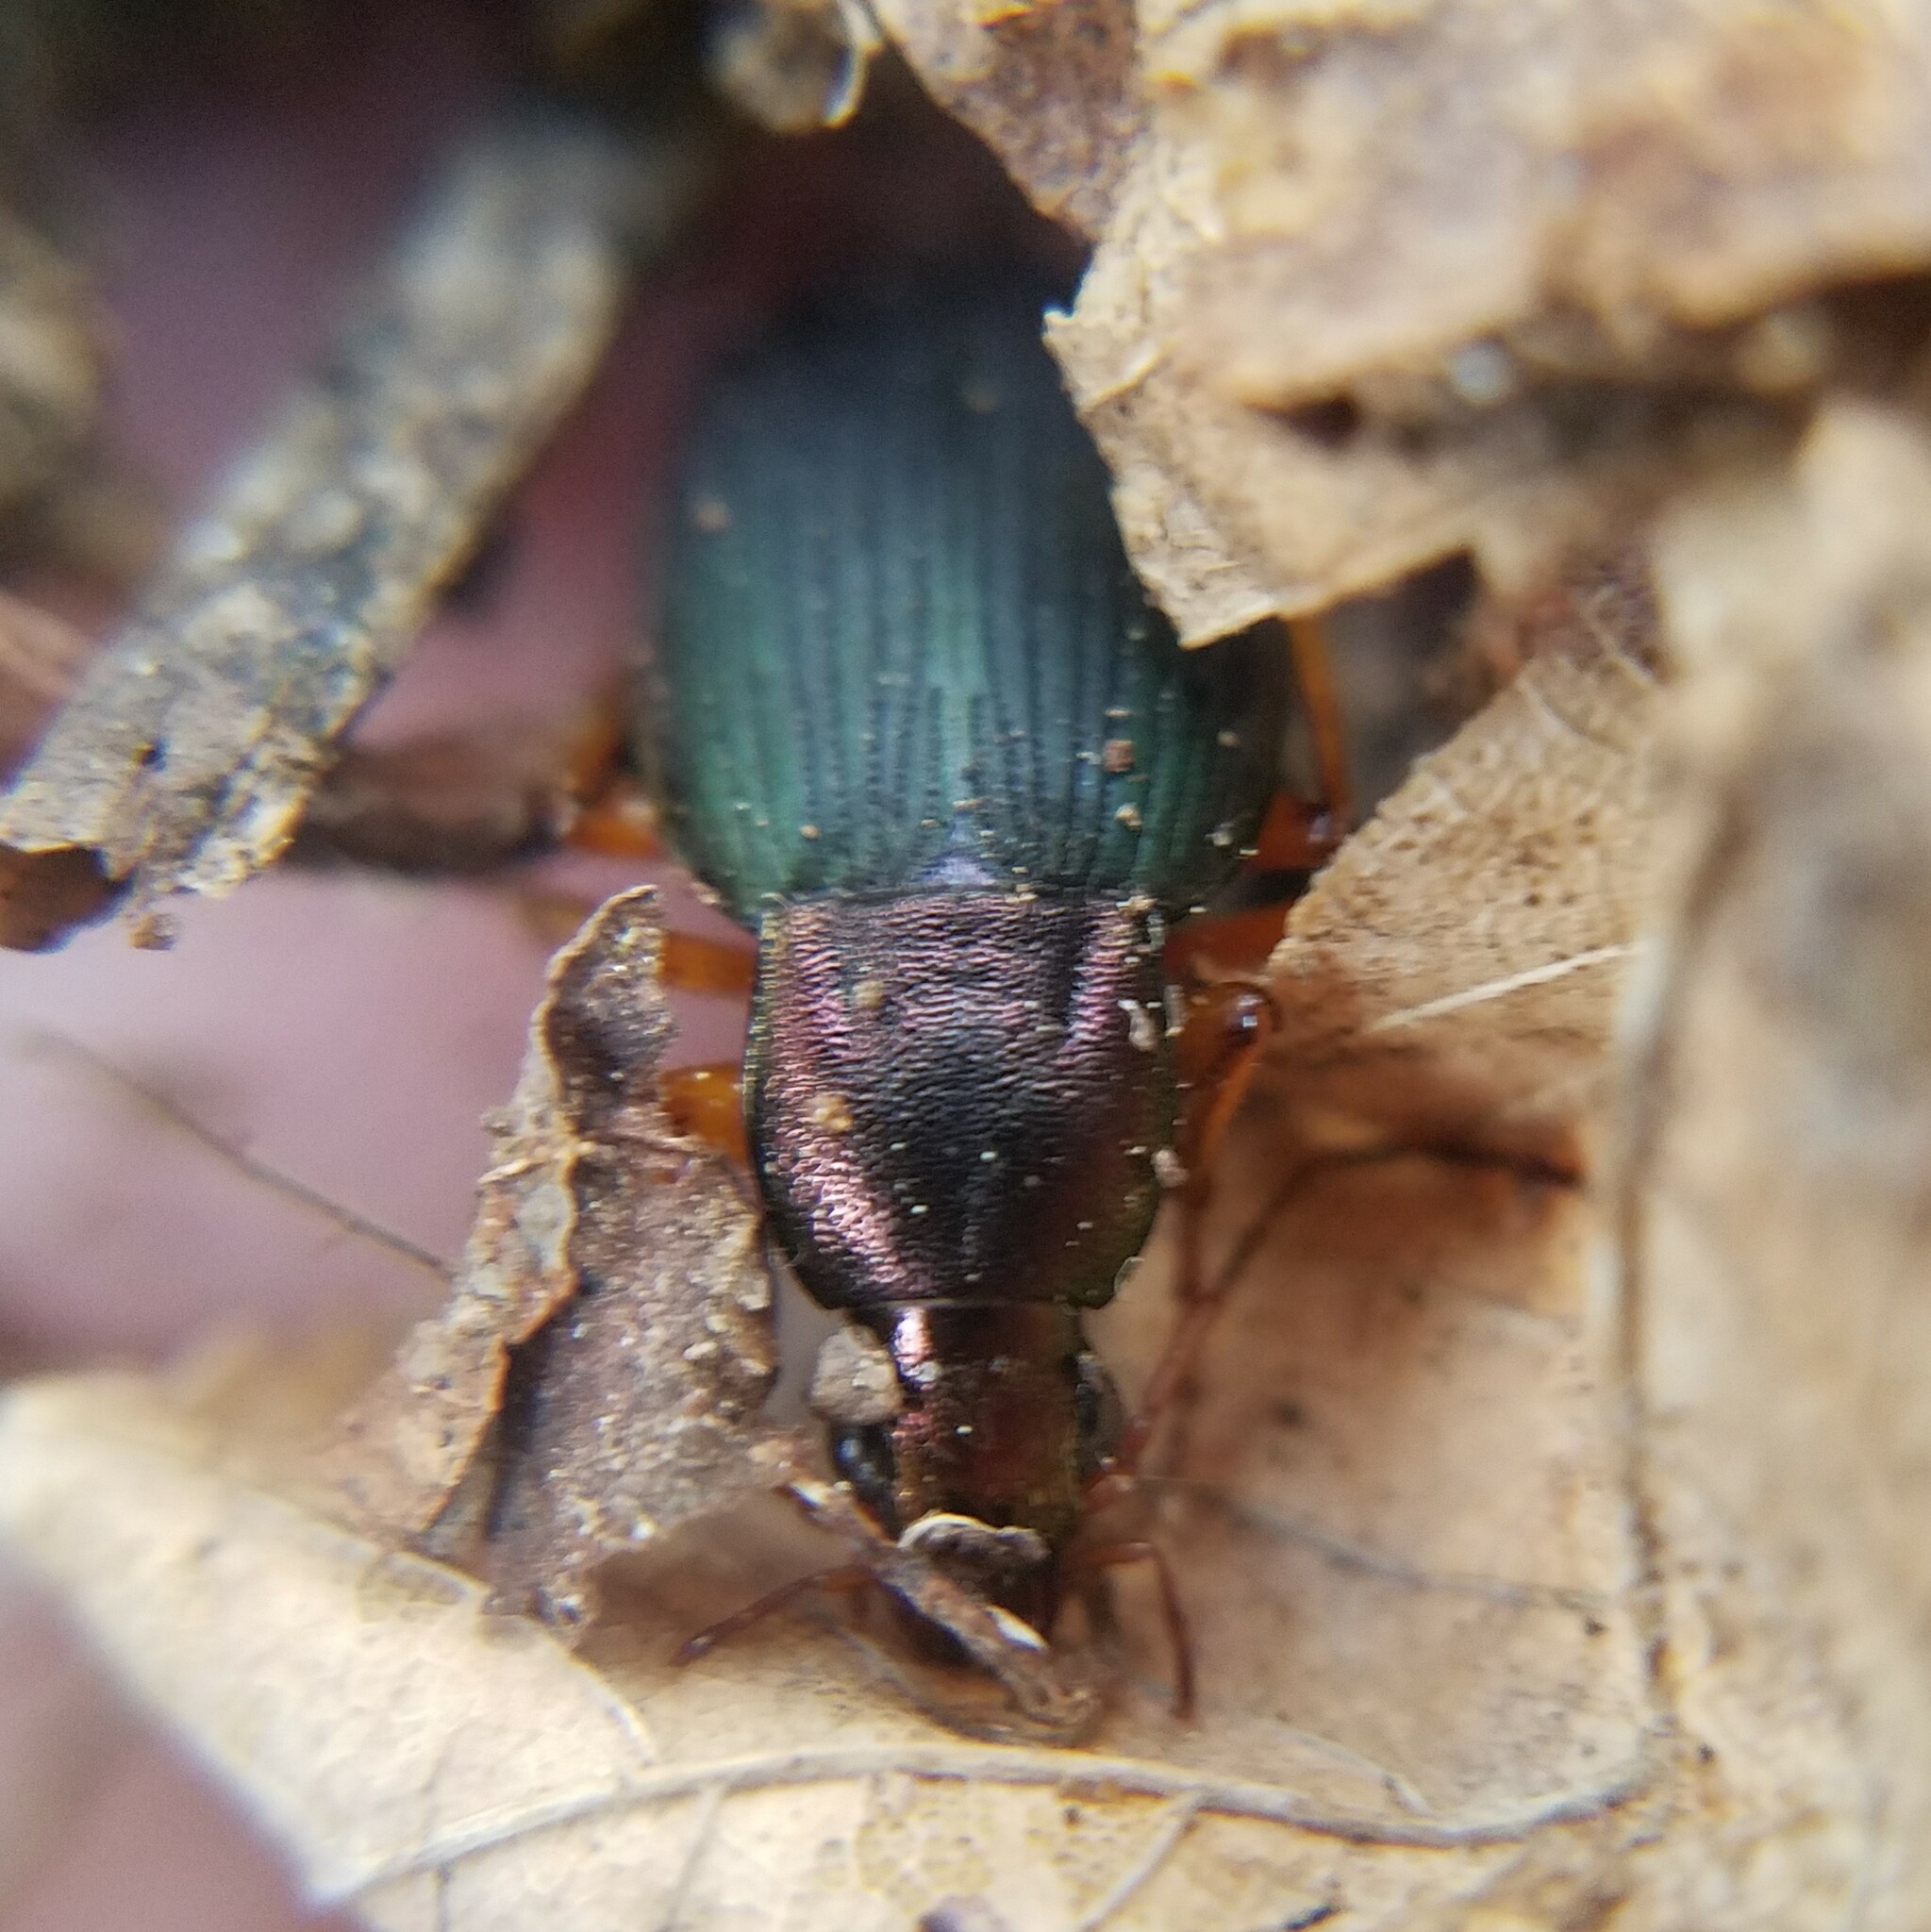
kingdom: Animalia
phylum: Arthropoda
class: Insecta
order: Coleoptera
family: Carabidae
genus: Chlaenius
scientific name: Chlaenius aestivus
